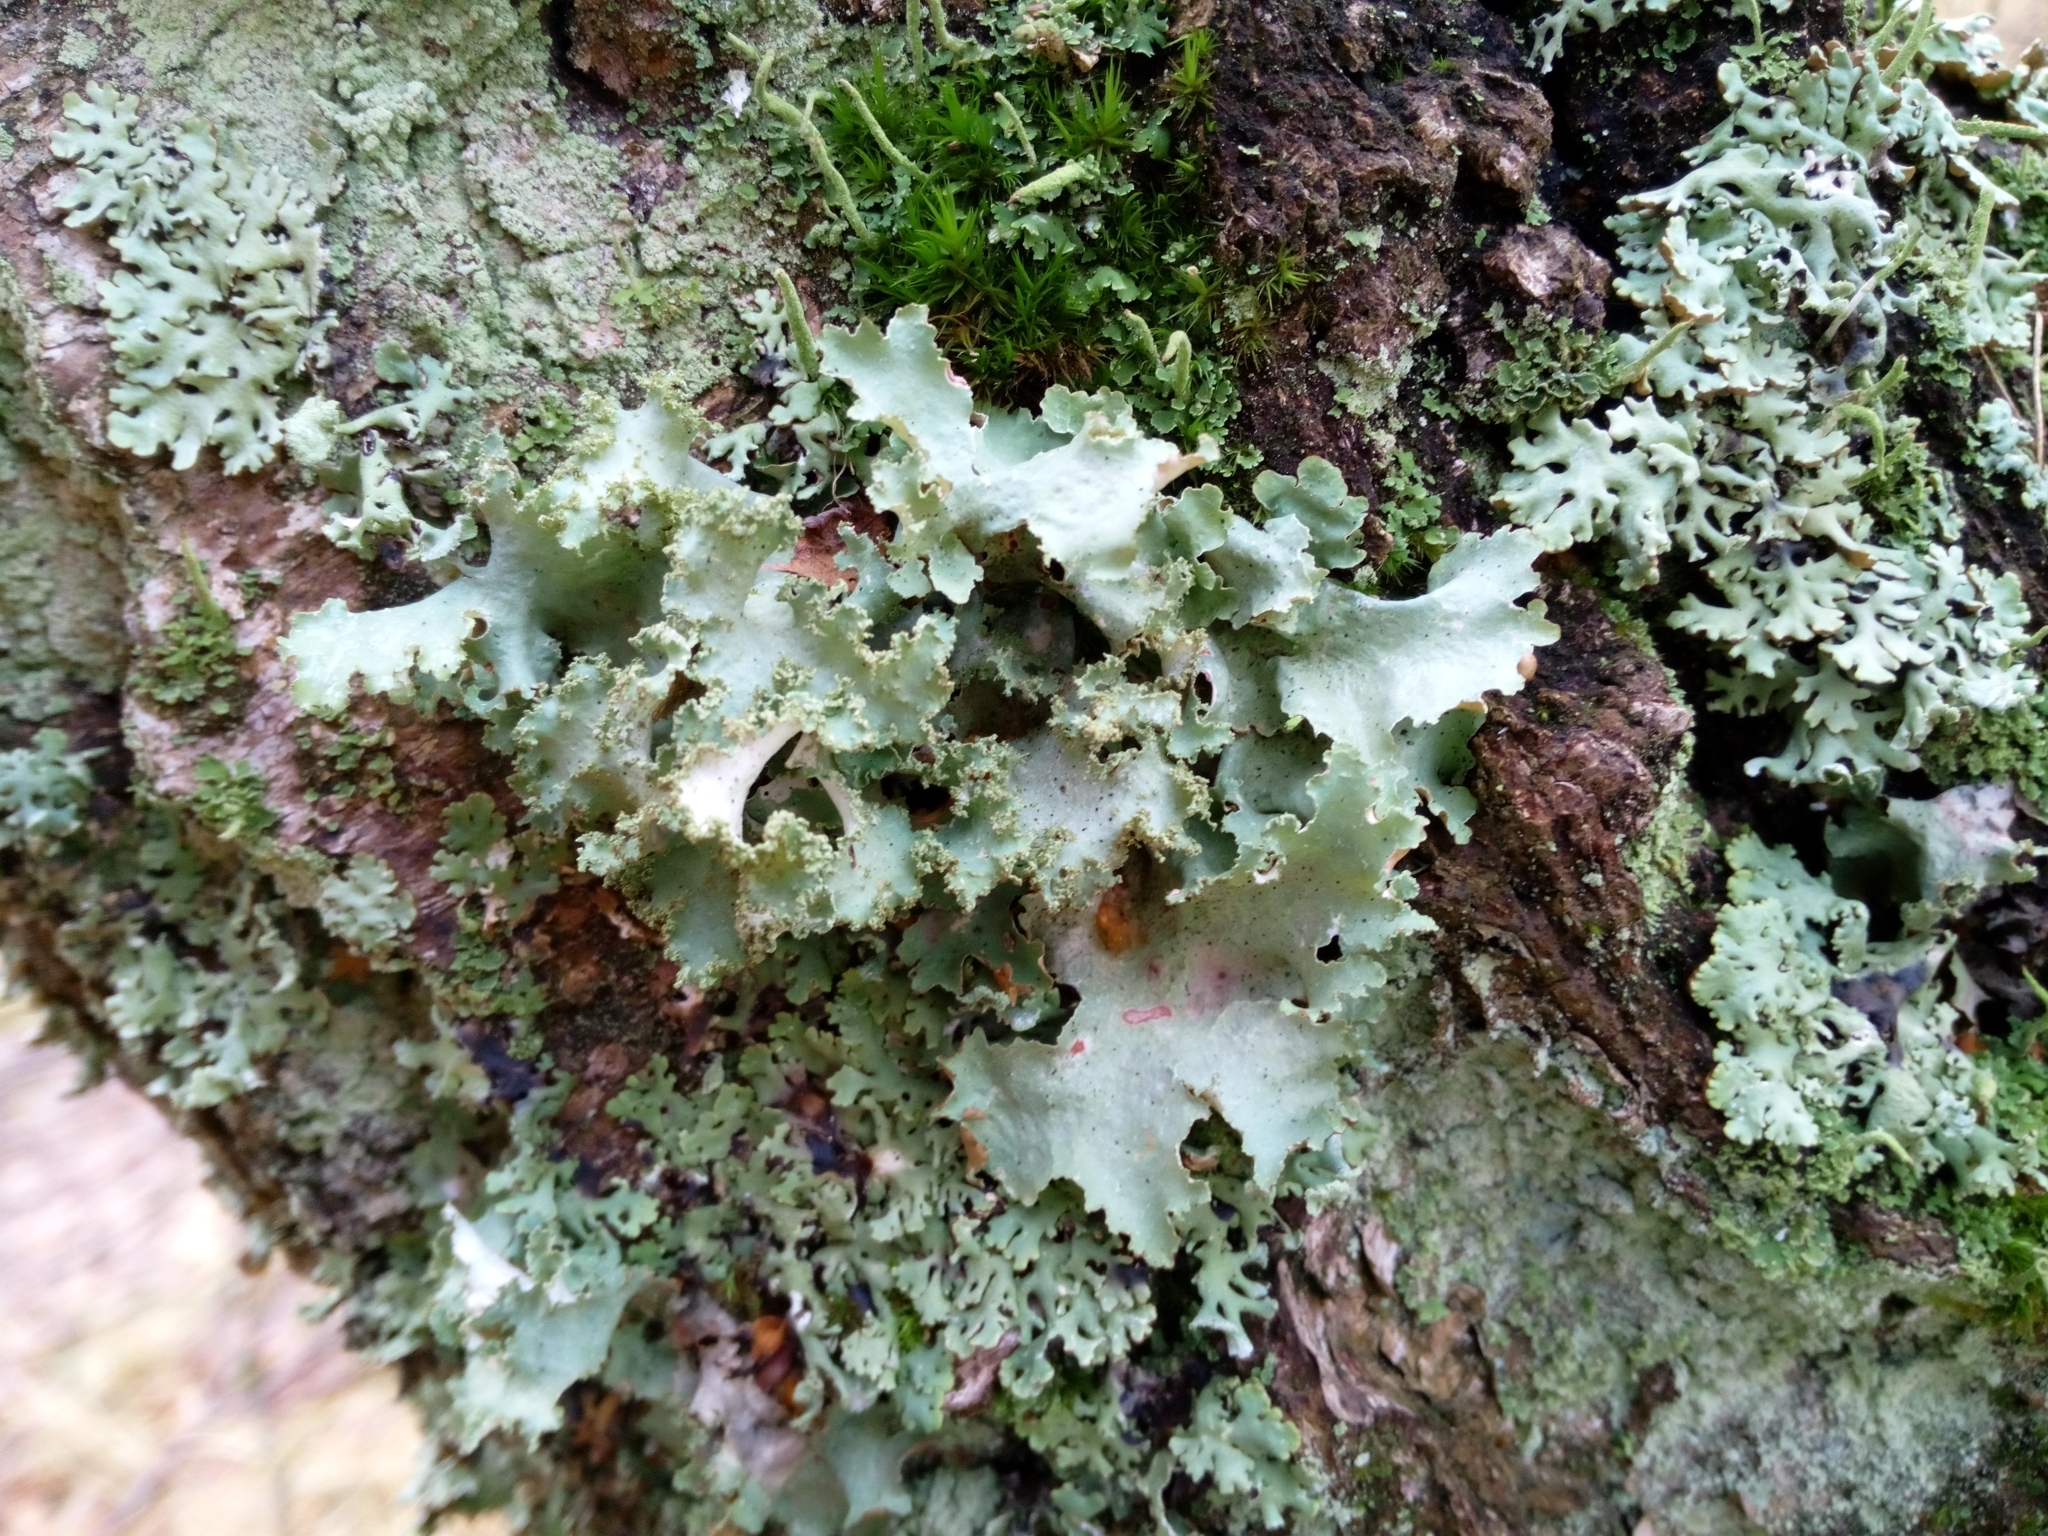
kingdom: Fungi
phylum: Ascomycota
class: Lecanoromycetes
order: Lecanorales
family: Parmeliaceae
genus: Platismatia
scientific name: Platismatia glauca
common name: Varied rag lichen
